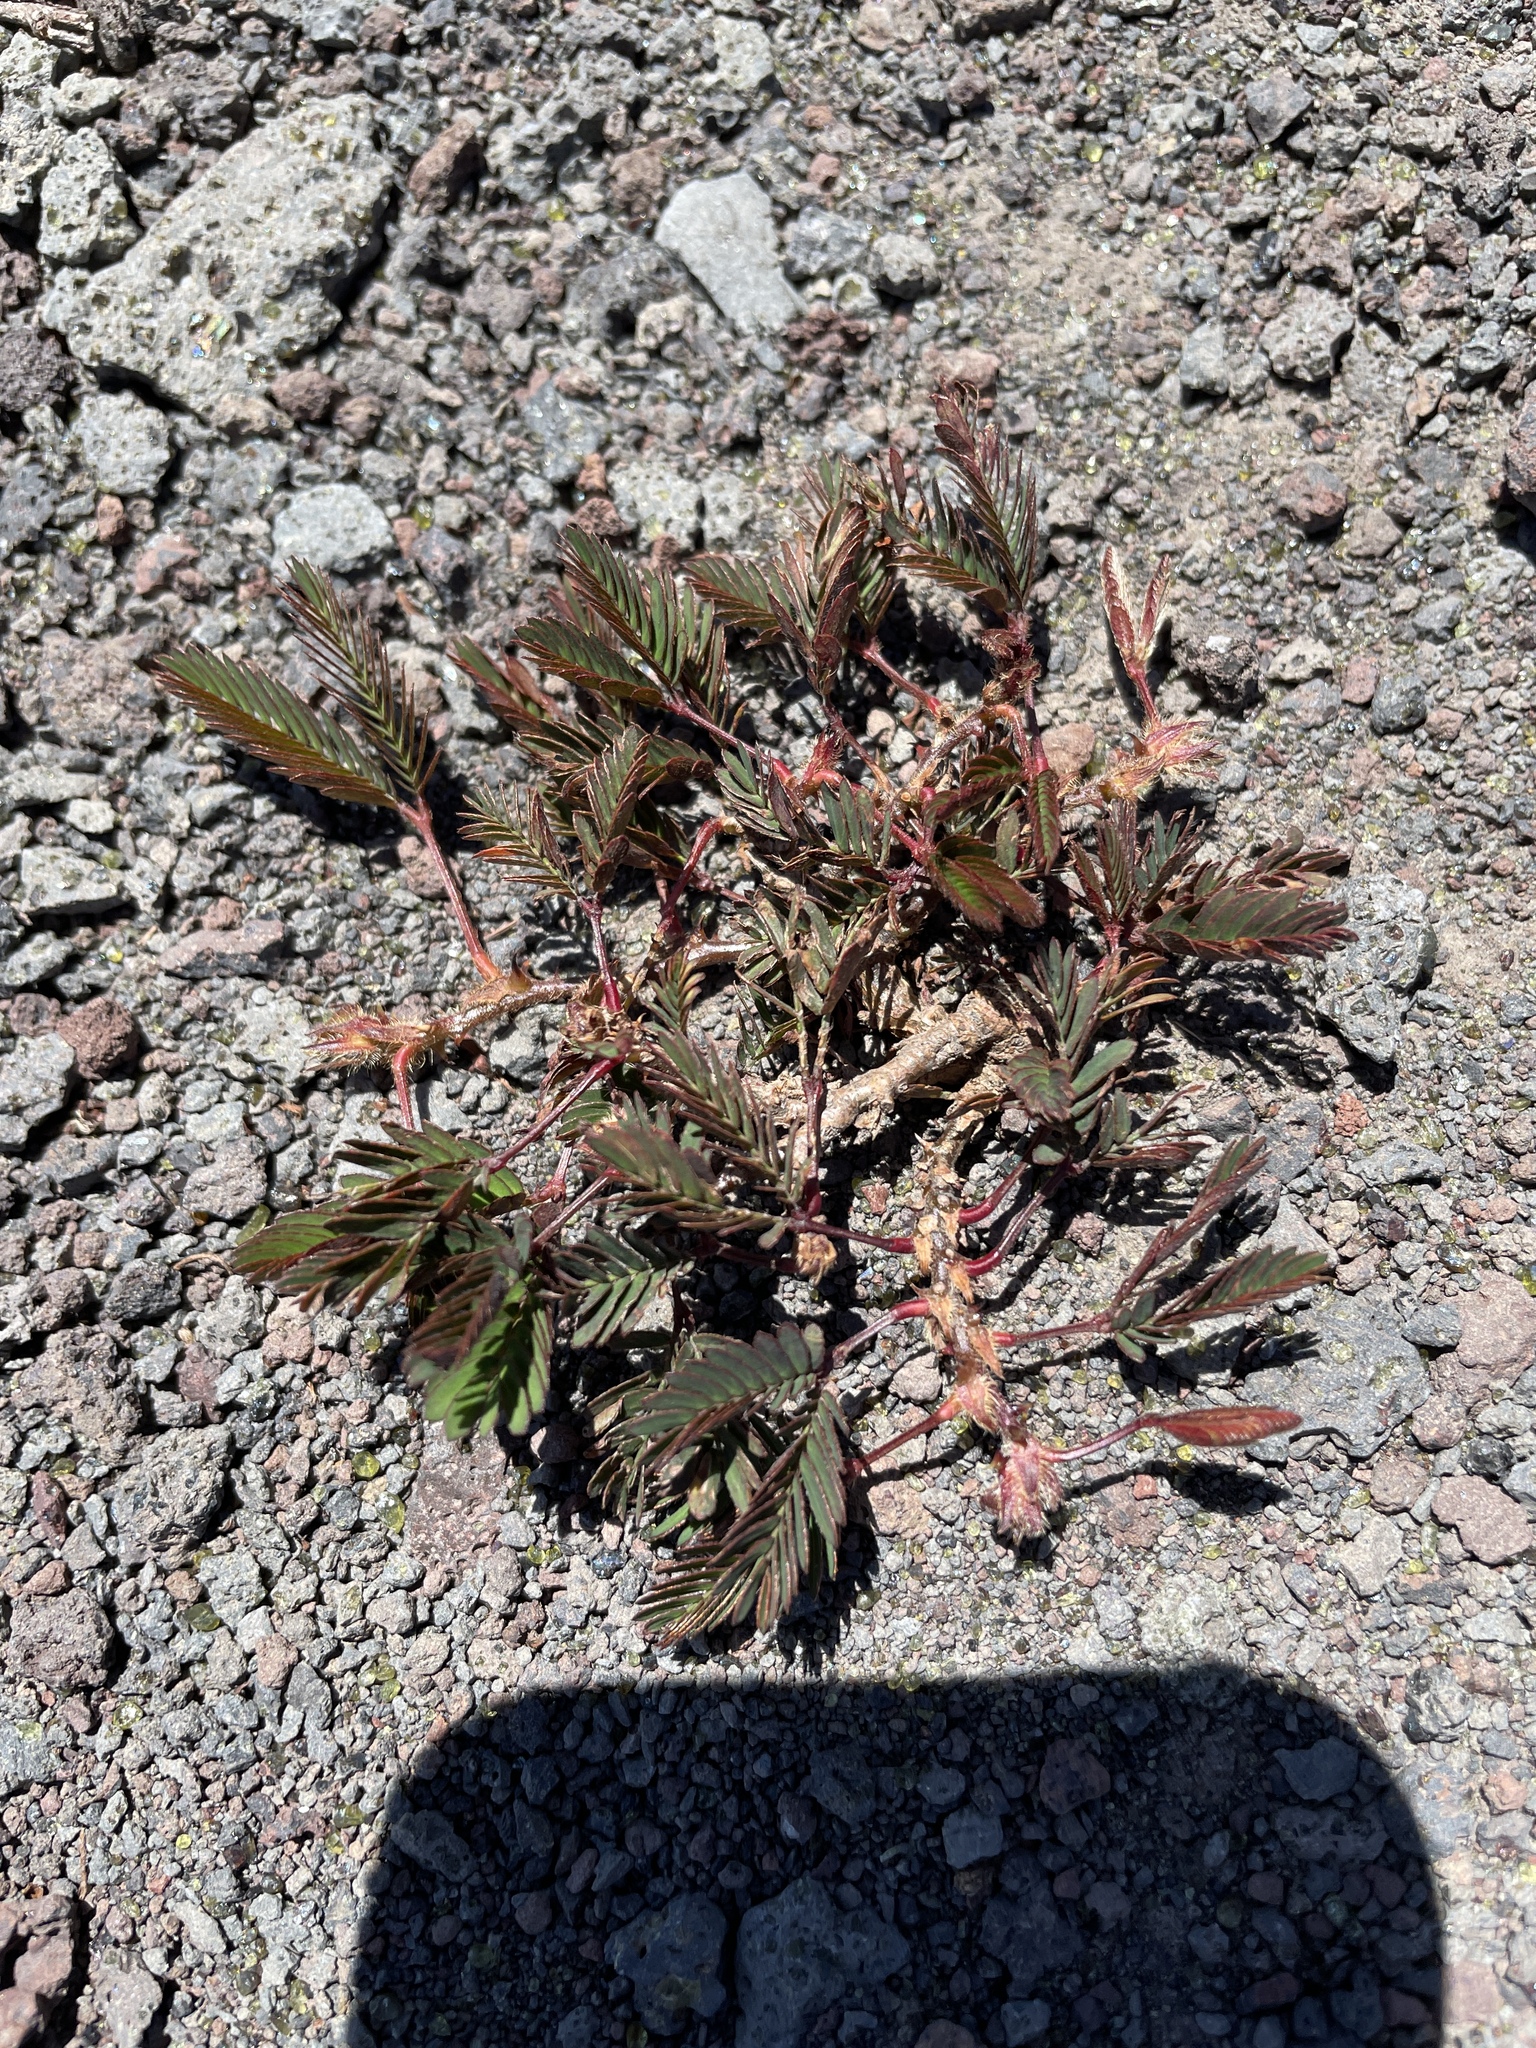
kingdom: Plantae
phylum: Tracheophyta
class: Magnoliopsida
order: Fabales
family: Fabaceae
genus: Mimosa
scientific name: Mimosa pudica
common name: Sensitive plant
